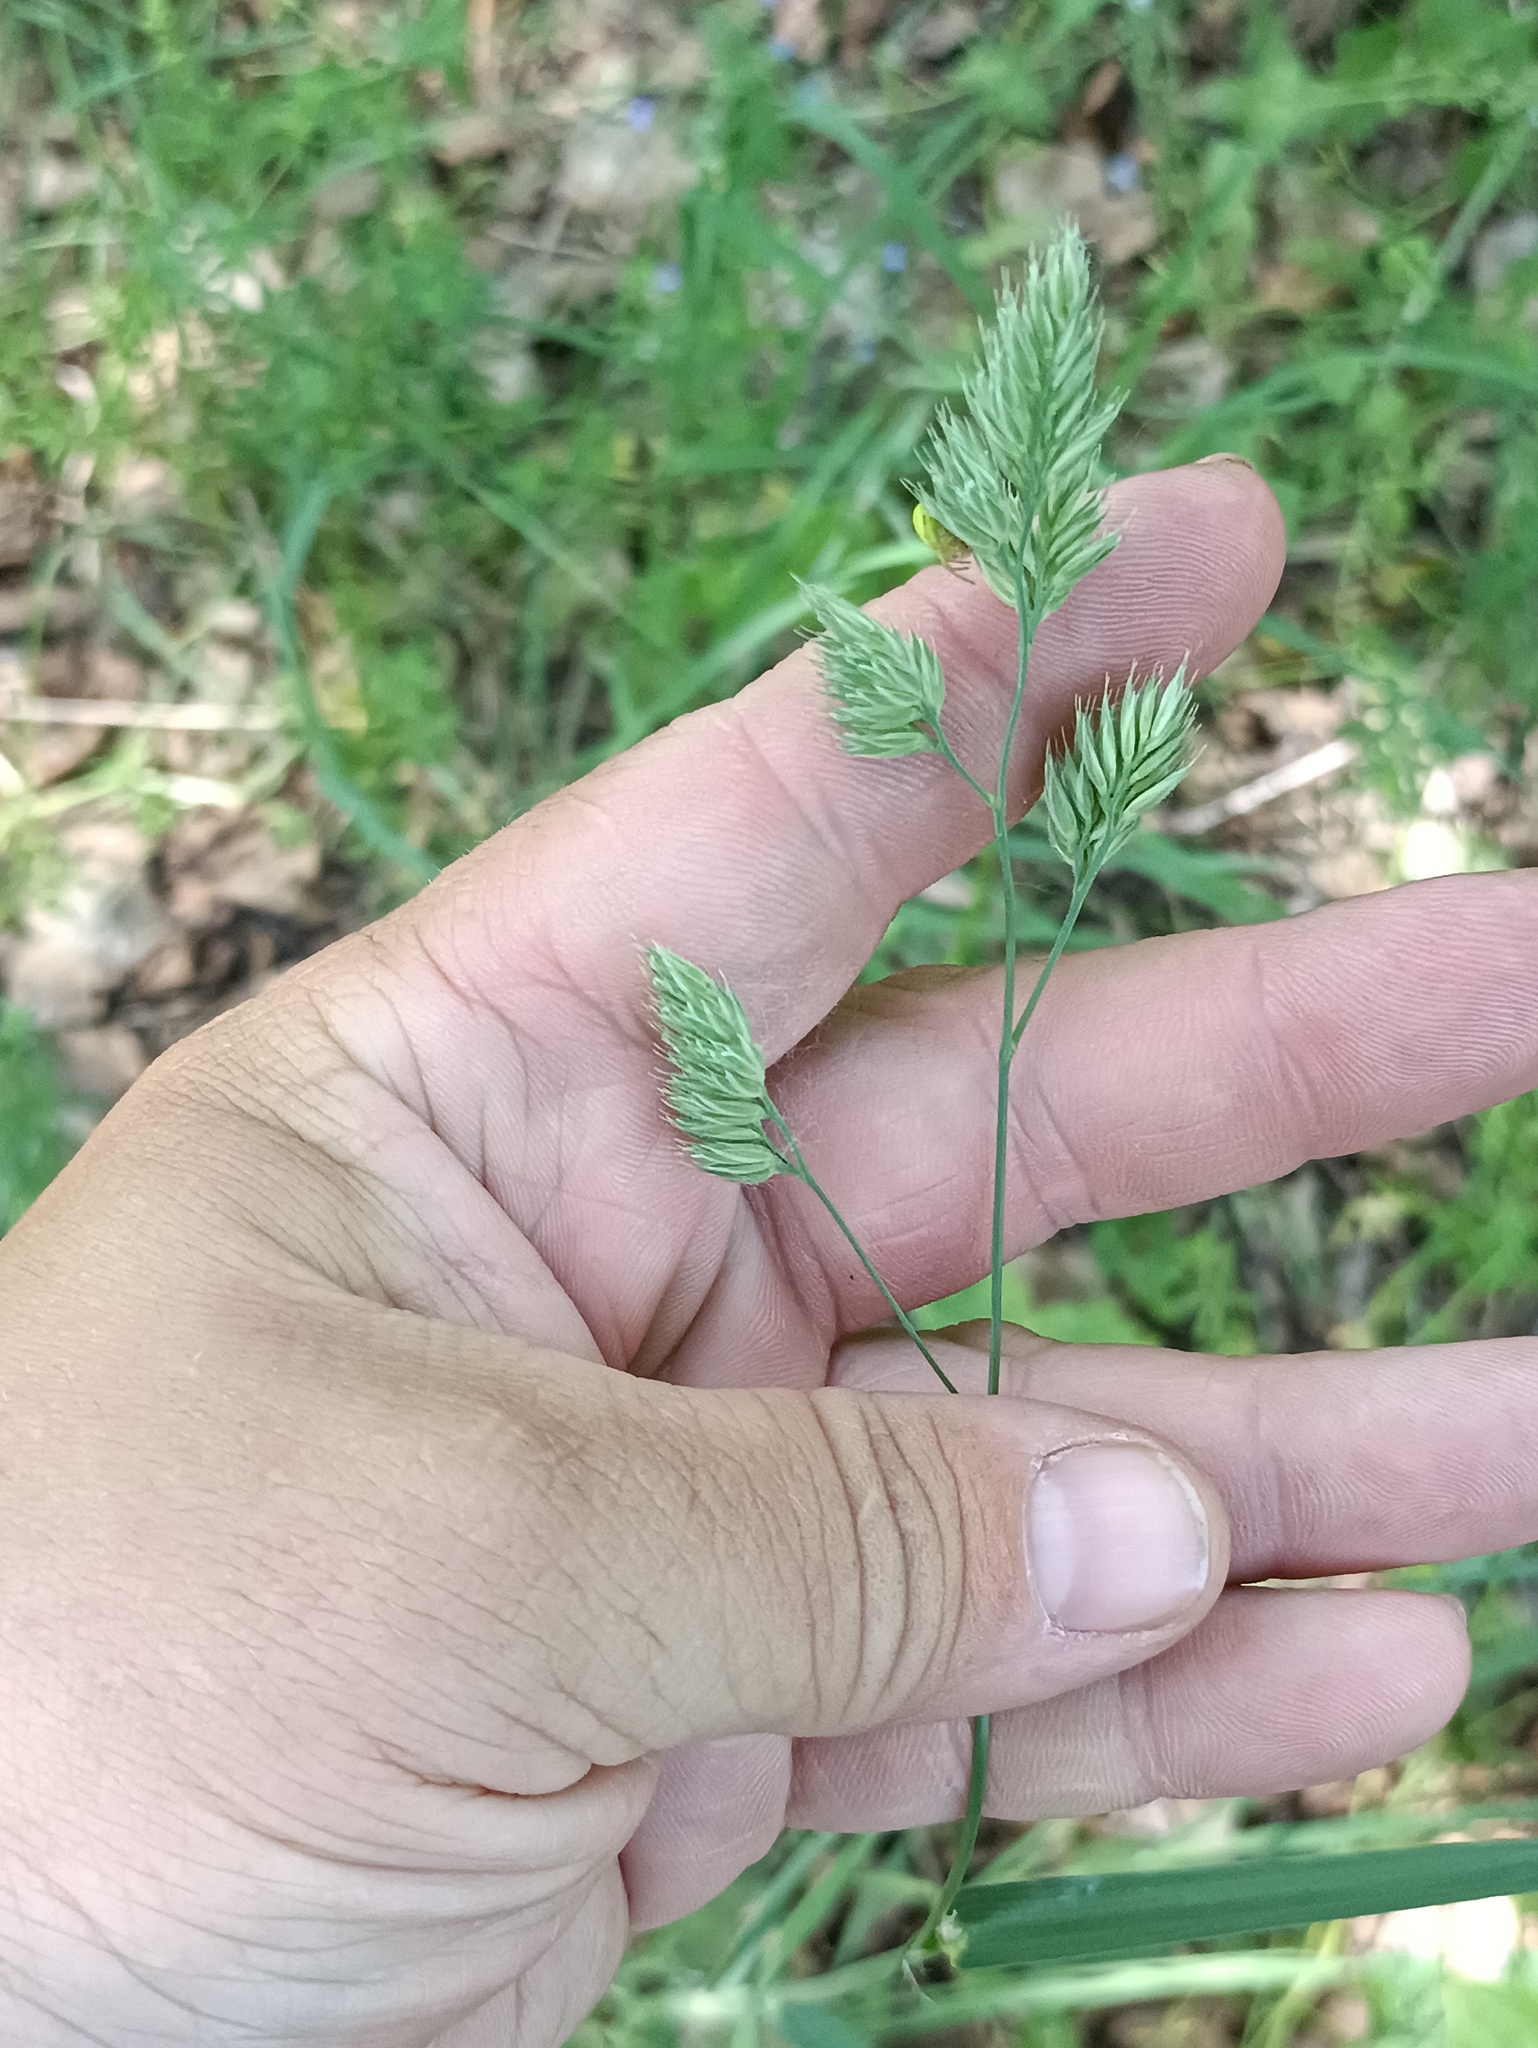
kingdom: Plantae
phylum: Tracheophyta
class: Liliopsida
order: Poales
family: Poaceae
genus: Dactylis
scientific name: Dactylis glomerata
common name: Orchardgrass
